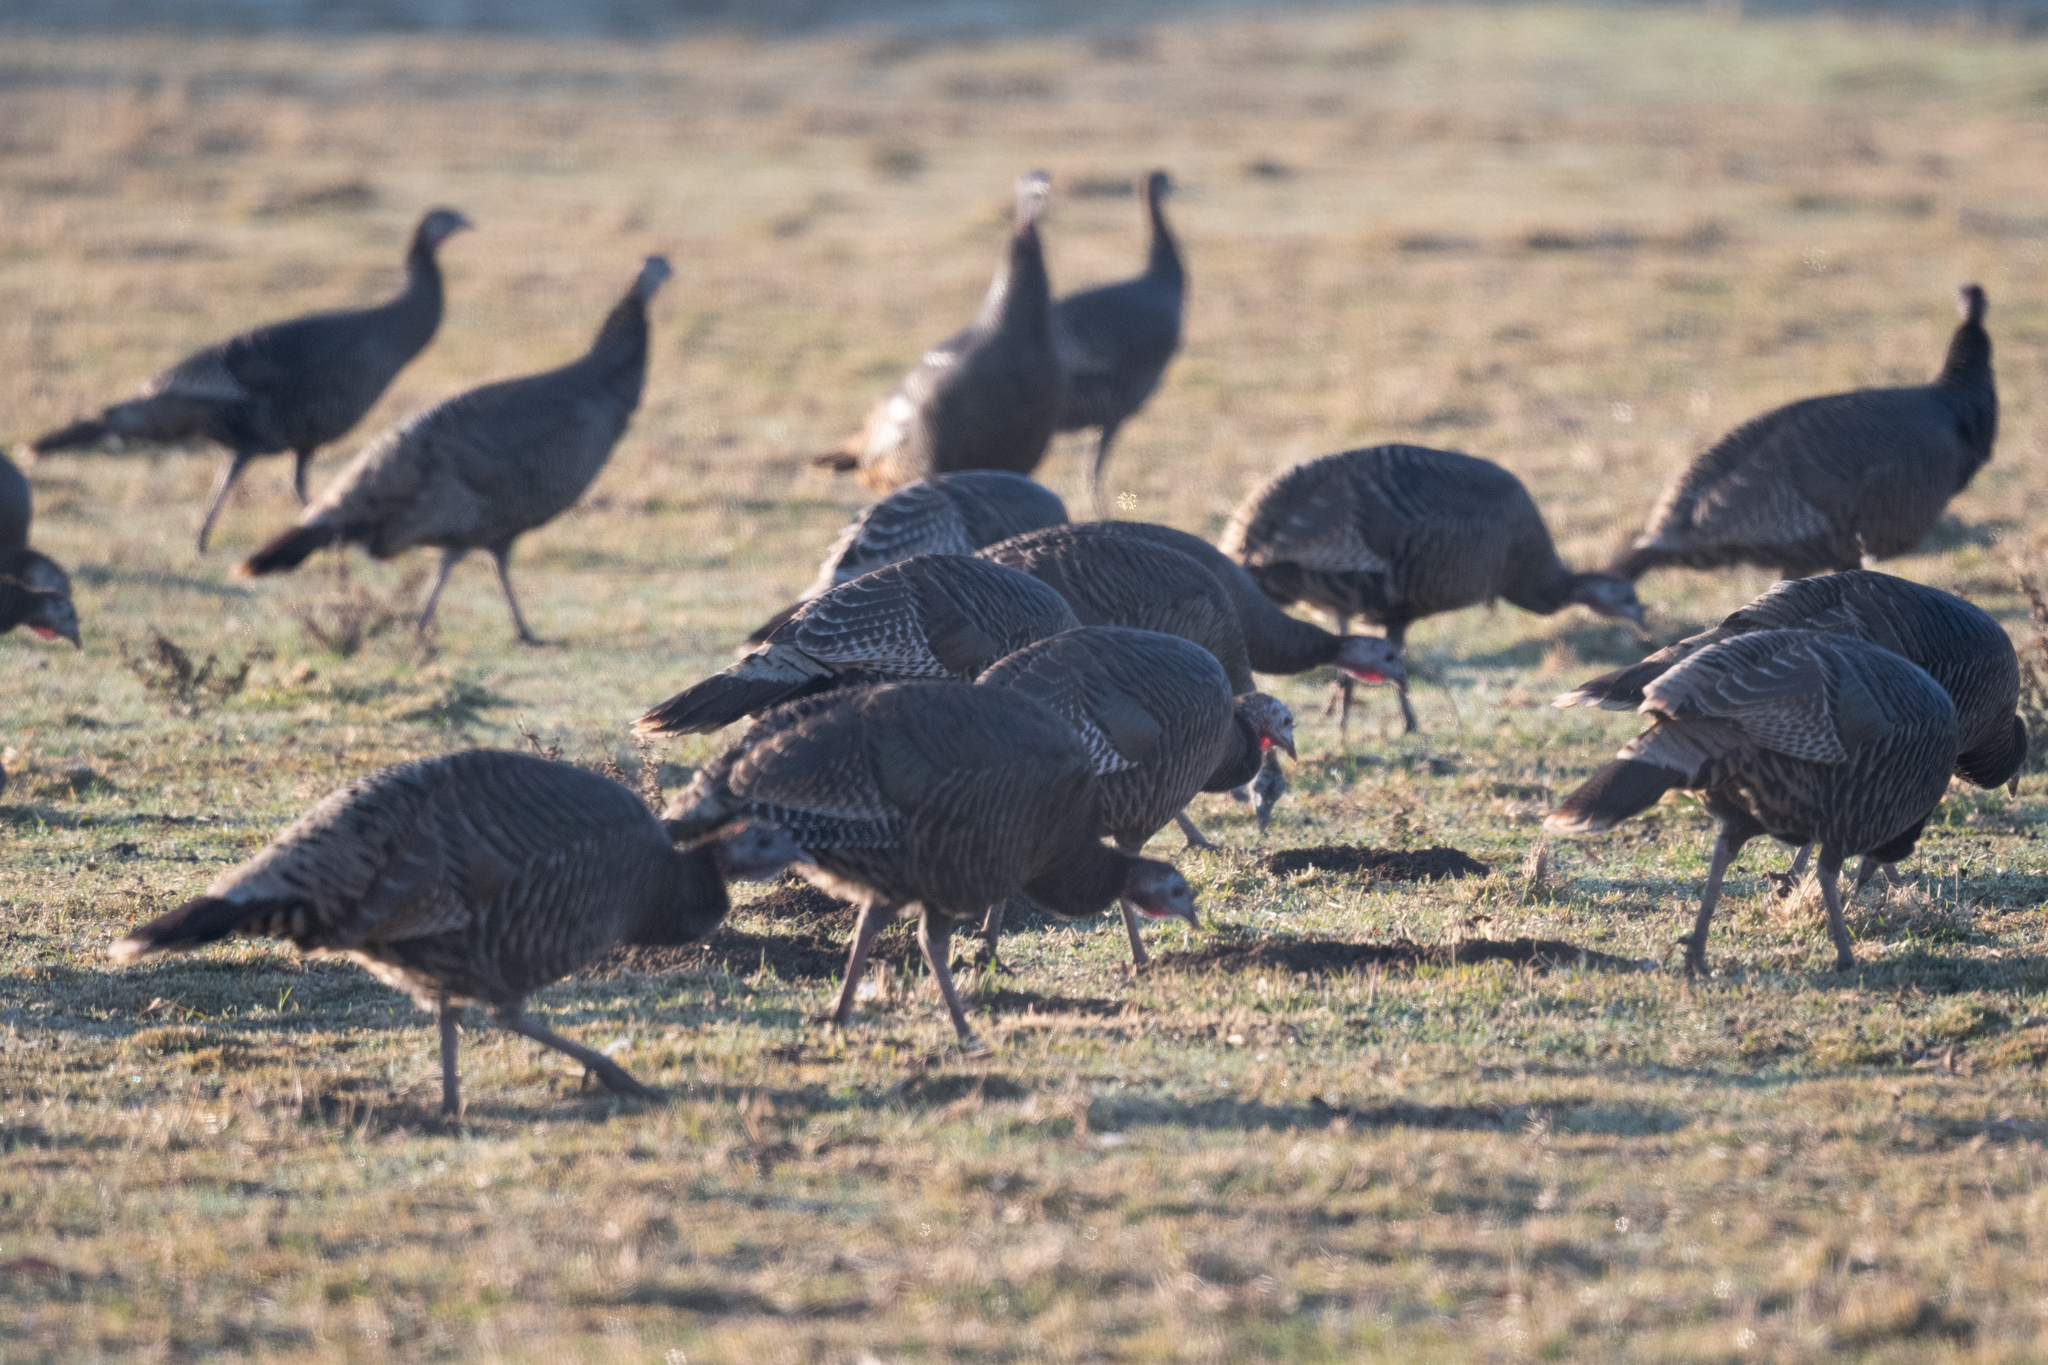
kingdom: Animalia
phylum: Chordata
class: Aves
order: Galliformes
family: Phasianidae
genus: Meleagris
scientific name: Meleagris gallopavo
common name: Wild turkey
